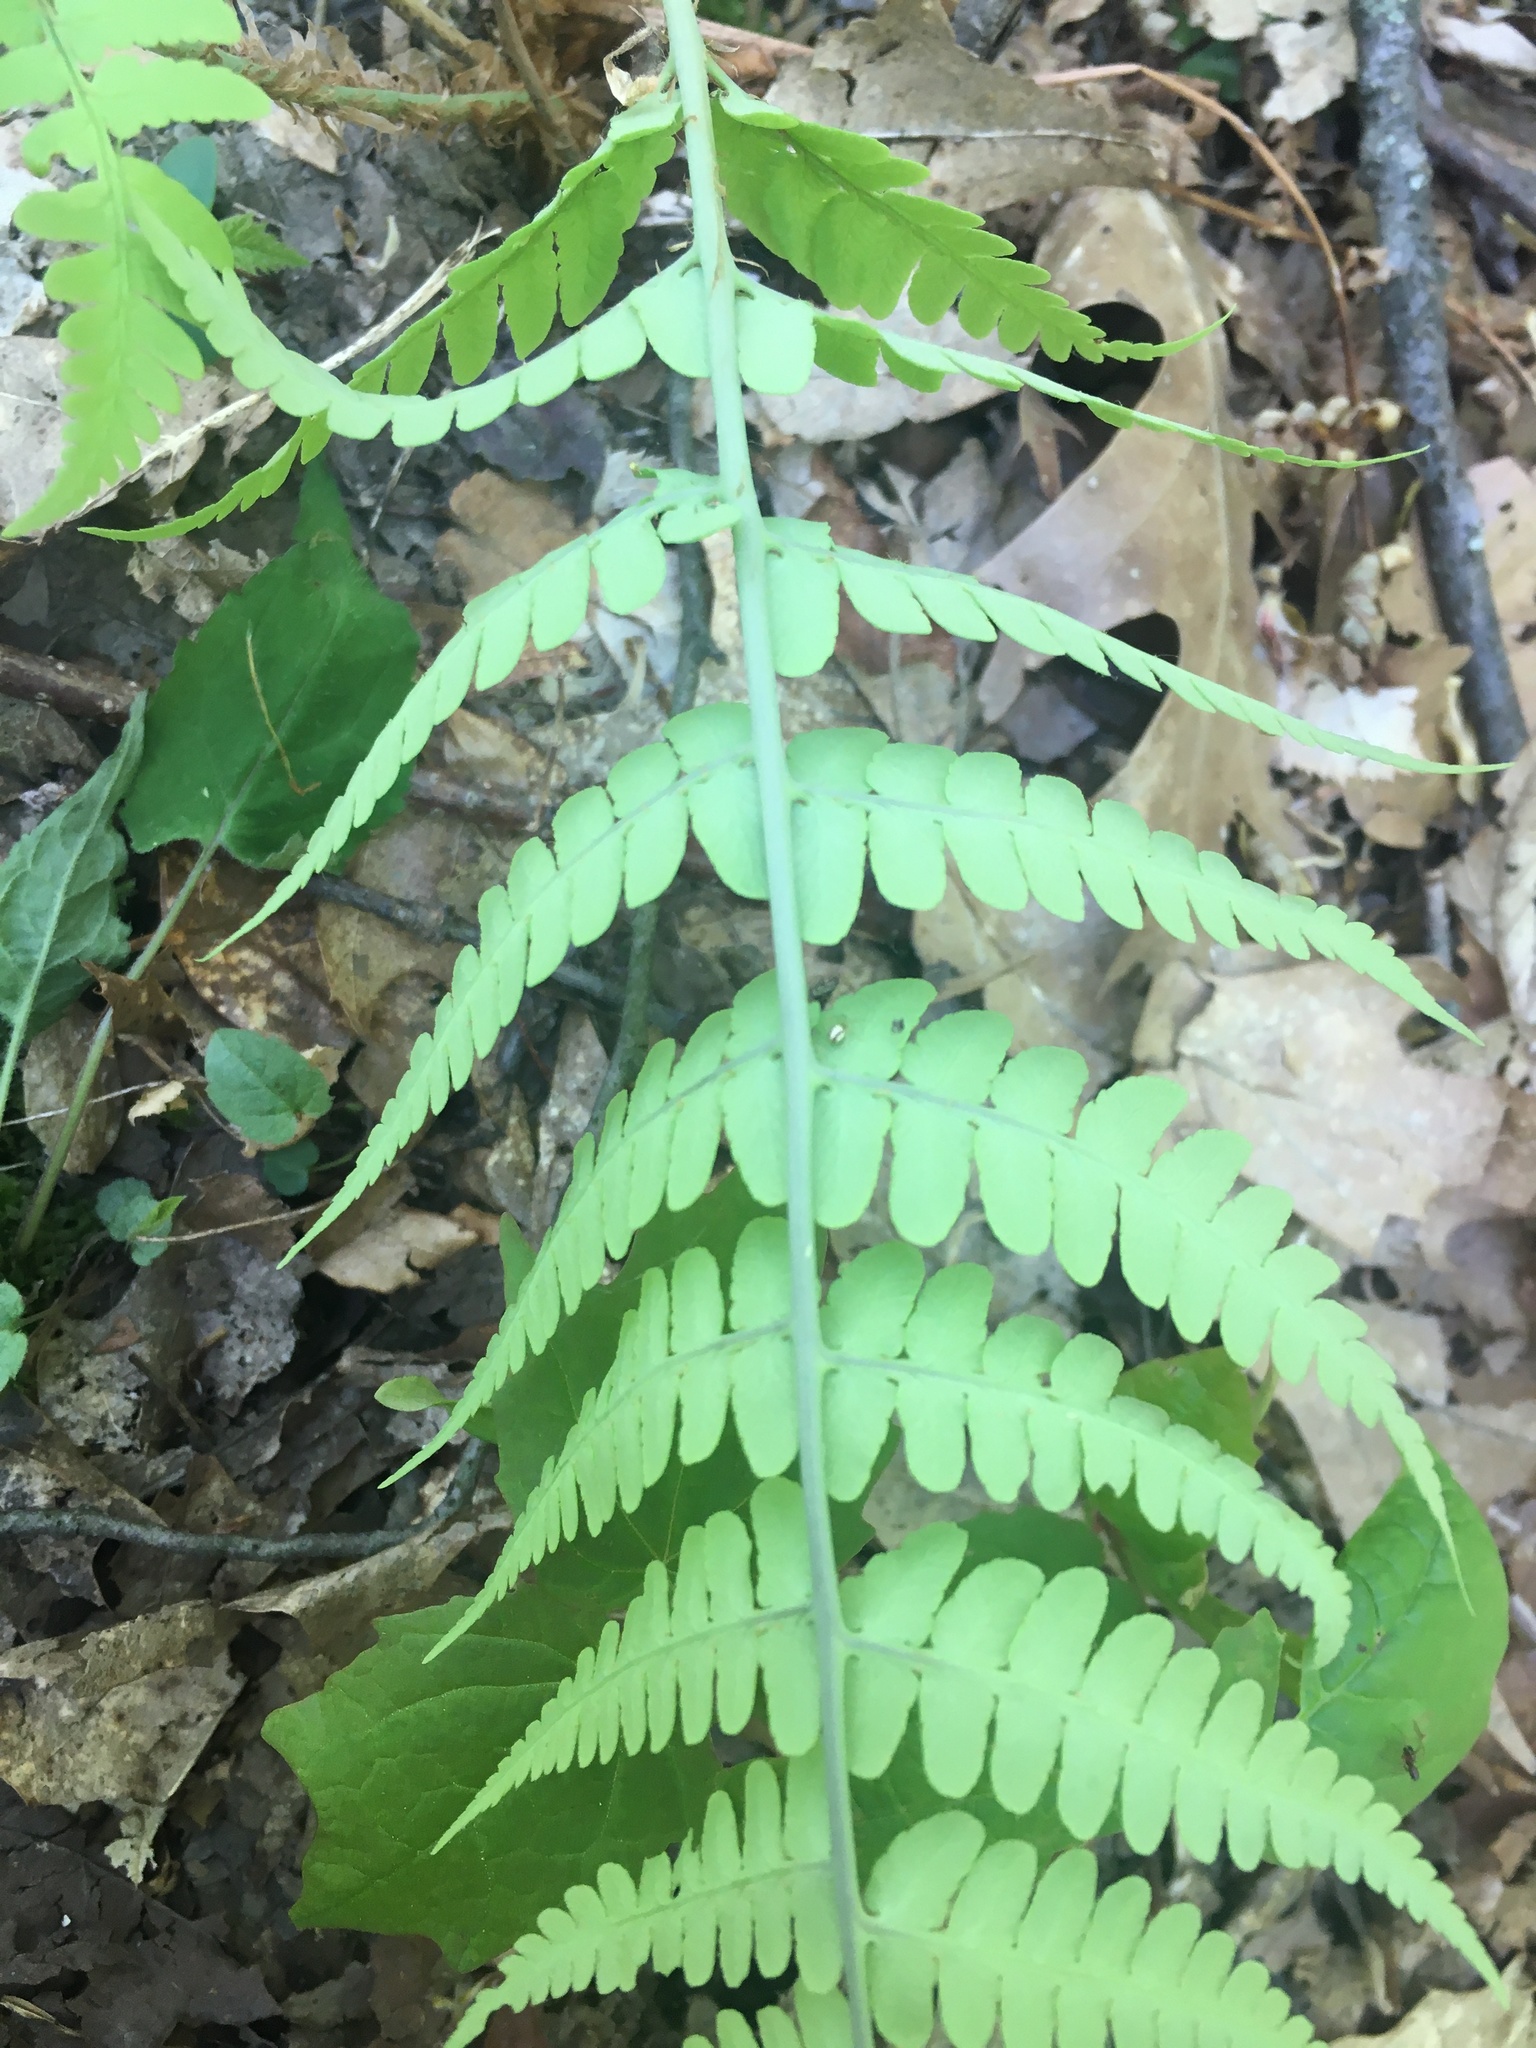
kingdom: Plantae
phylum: Tracheophyta
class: Polypodiopsida
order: Polypodiales
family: Dryopteridaceae
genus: Dryopteris
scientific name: Dryopteris marginalis
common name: Marginal wood fern
